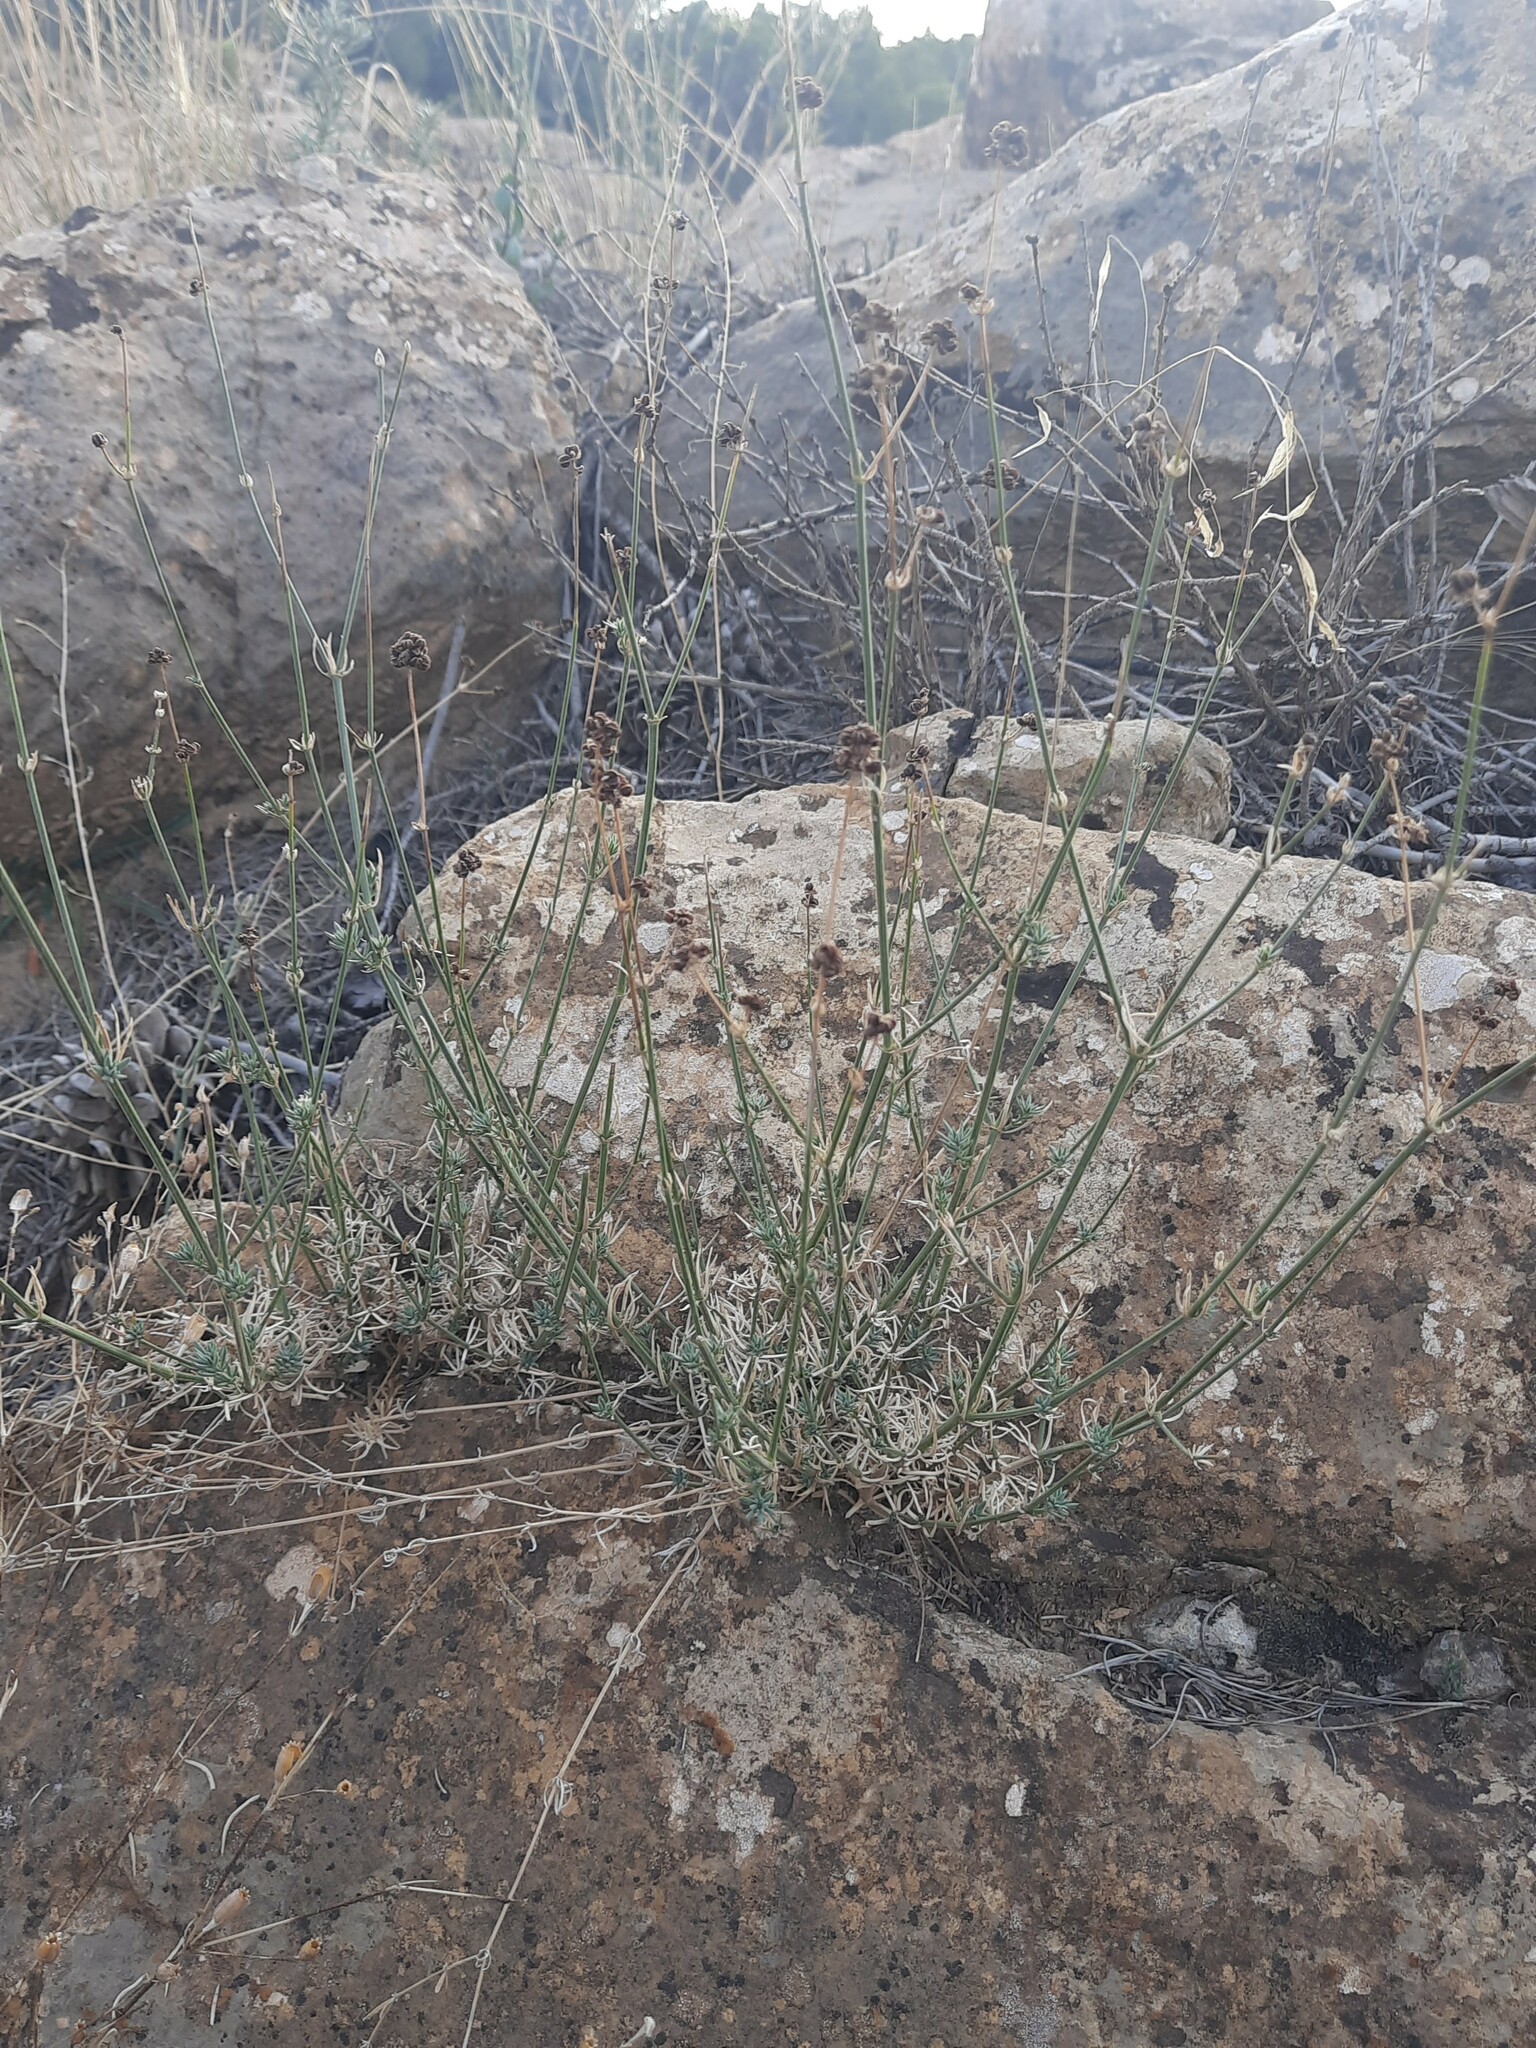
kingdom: Plantae
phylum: Tracheophyta
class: Magnoliopsida
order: Gentianales
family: Rubiaceae
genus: Hexaphylla
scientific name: Hexaphylla hirsuta
